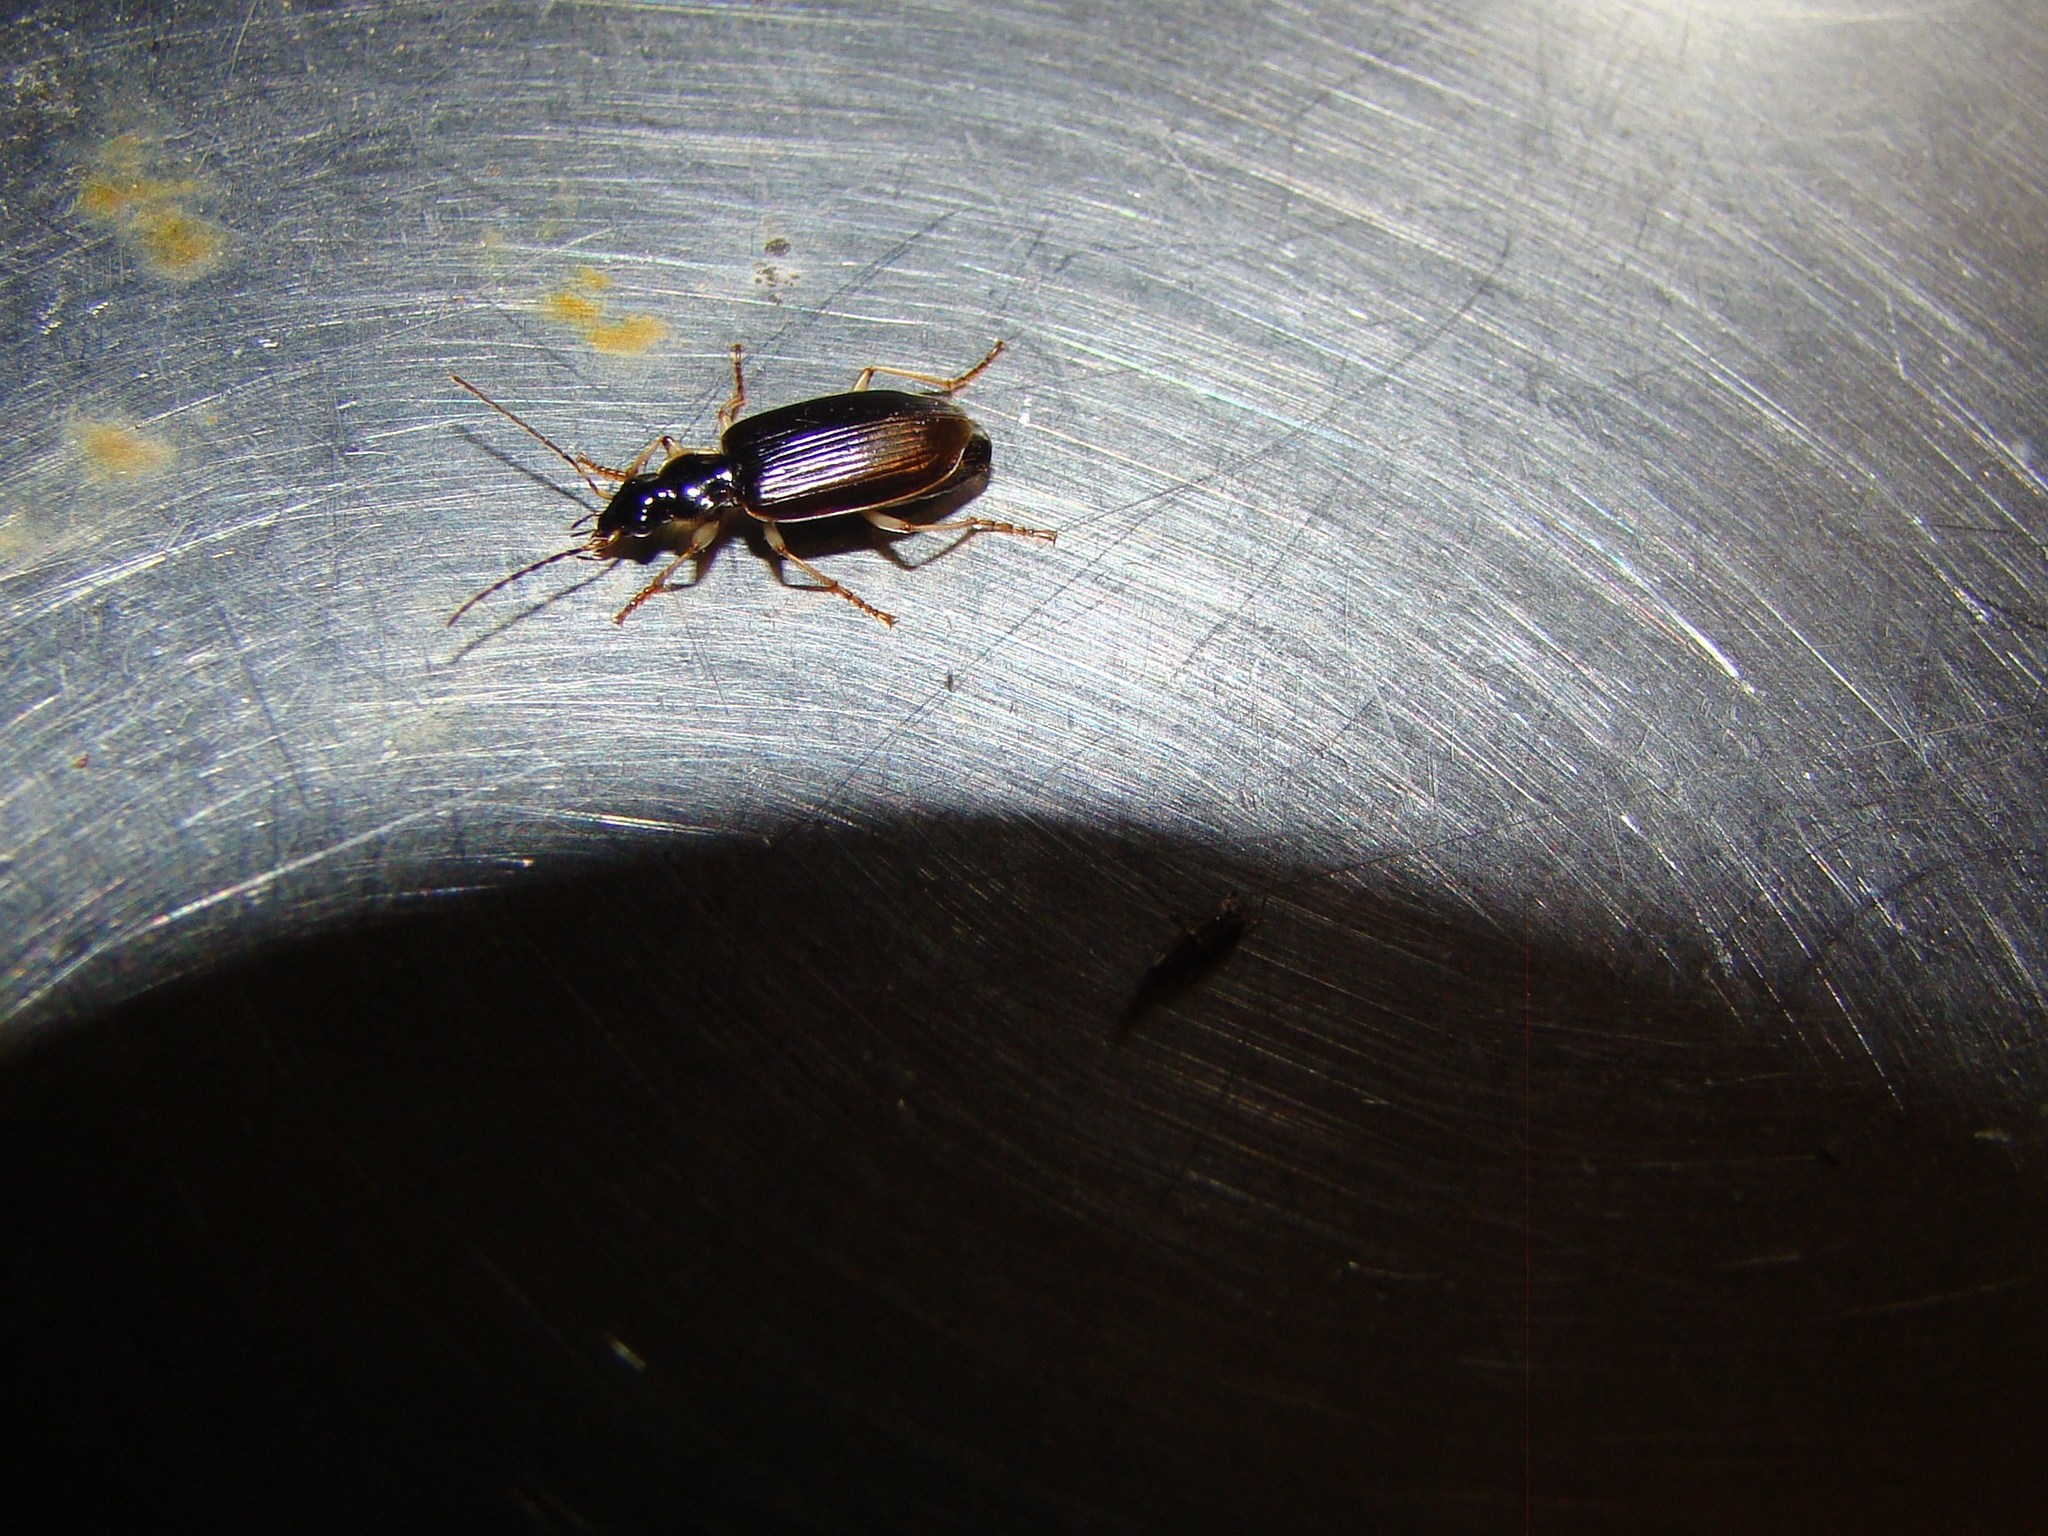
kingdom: Animalia
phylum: Arthropoda
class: Insecta
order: Coleoptera
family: Carabidae
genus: Notagonum
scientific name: Notagonum submetallicum
